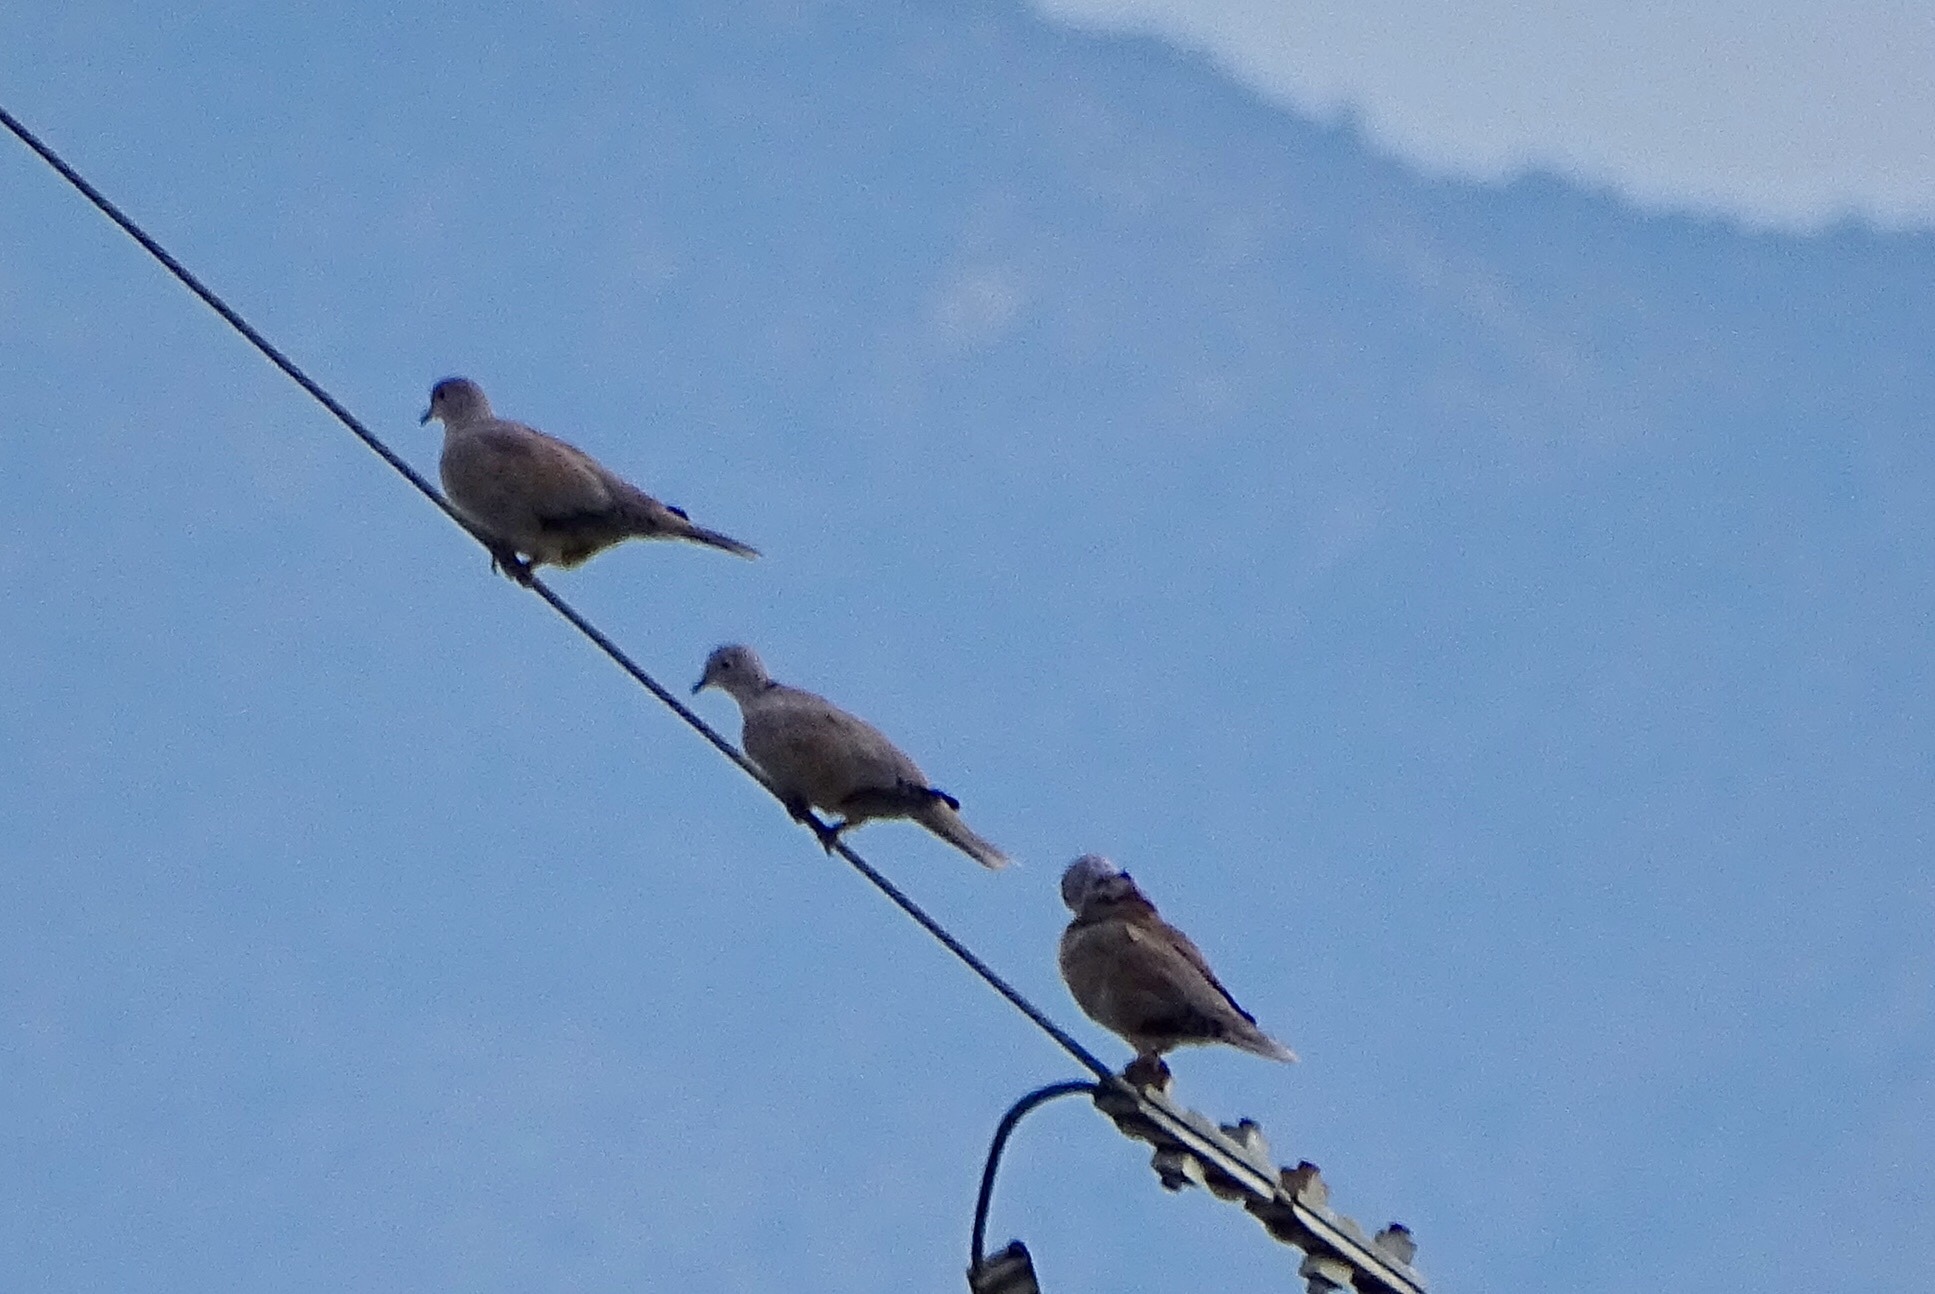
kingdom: Animalia
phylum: Chordata
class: Aves
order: Columbiformes
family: Columbidae
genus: Streptopelia
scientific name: Streptopelia decaocto
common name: Eurasian collared dove
